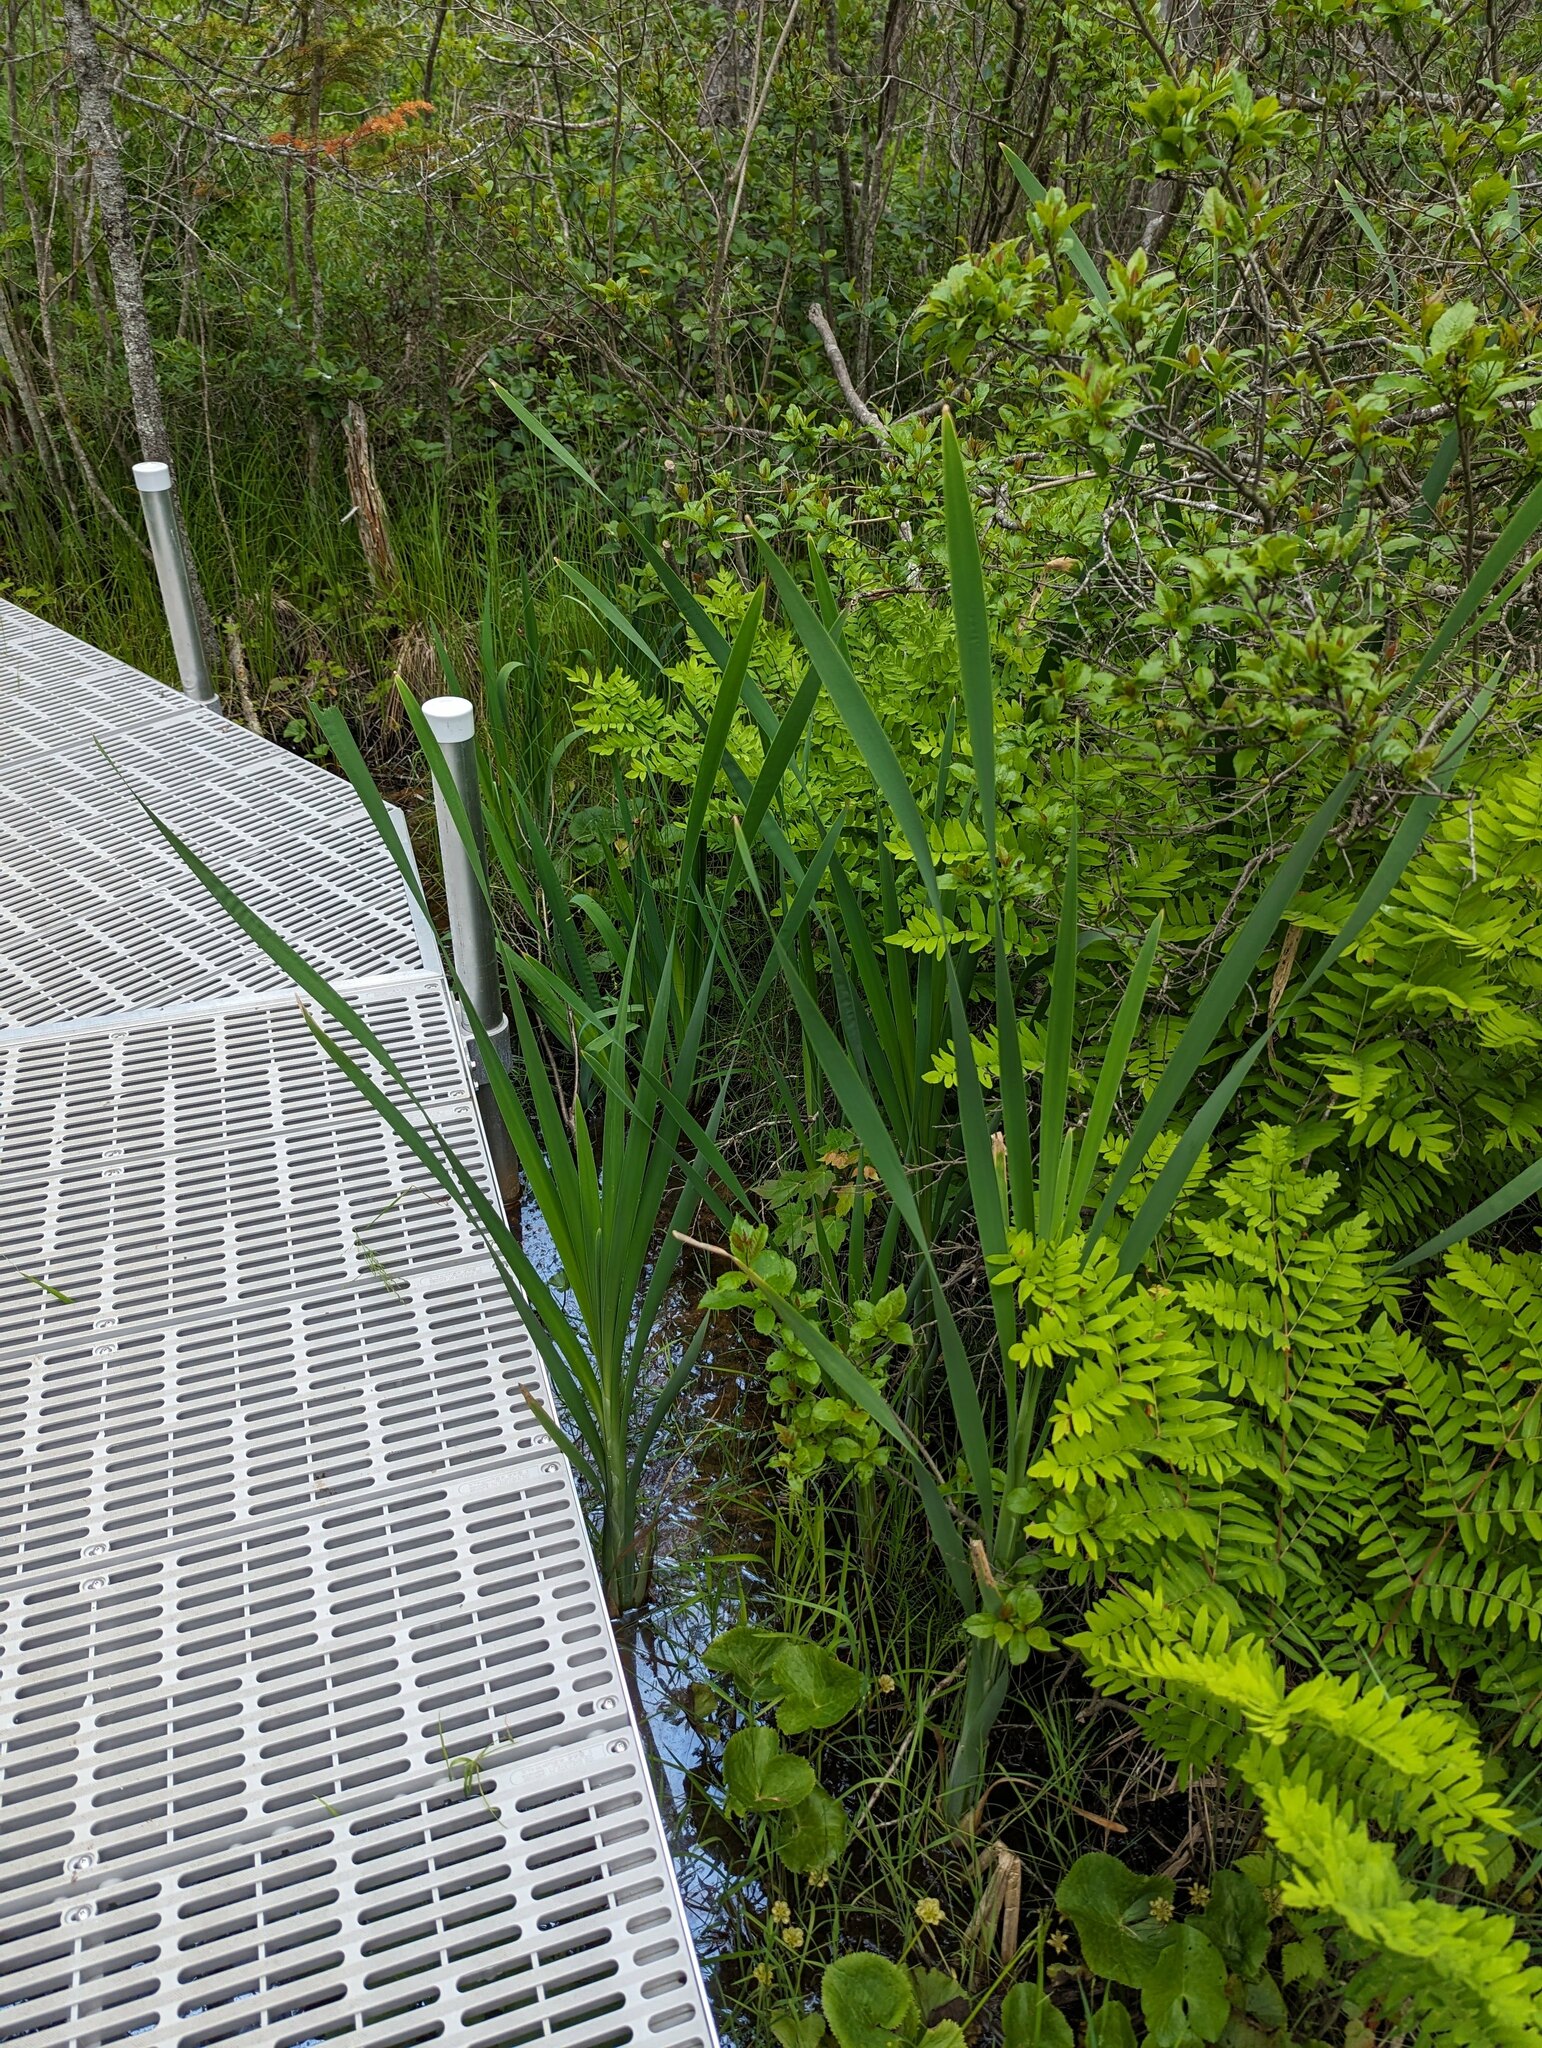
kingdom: Plantae
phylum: Tracheophyta
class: Liliopsida
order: Poales
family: Typhaceae
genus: Typha
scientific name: Typha latifolia
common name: Broadleaf cattail
